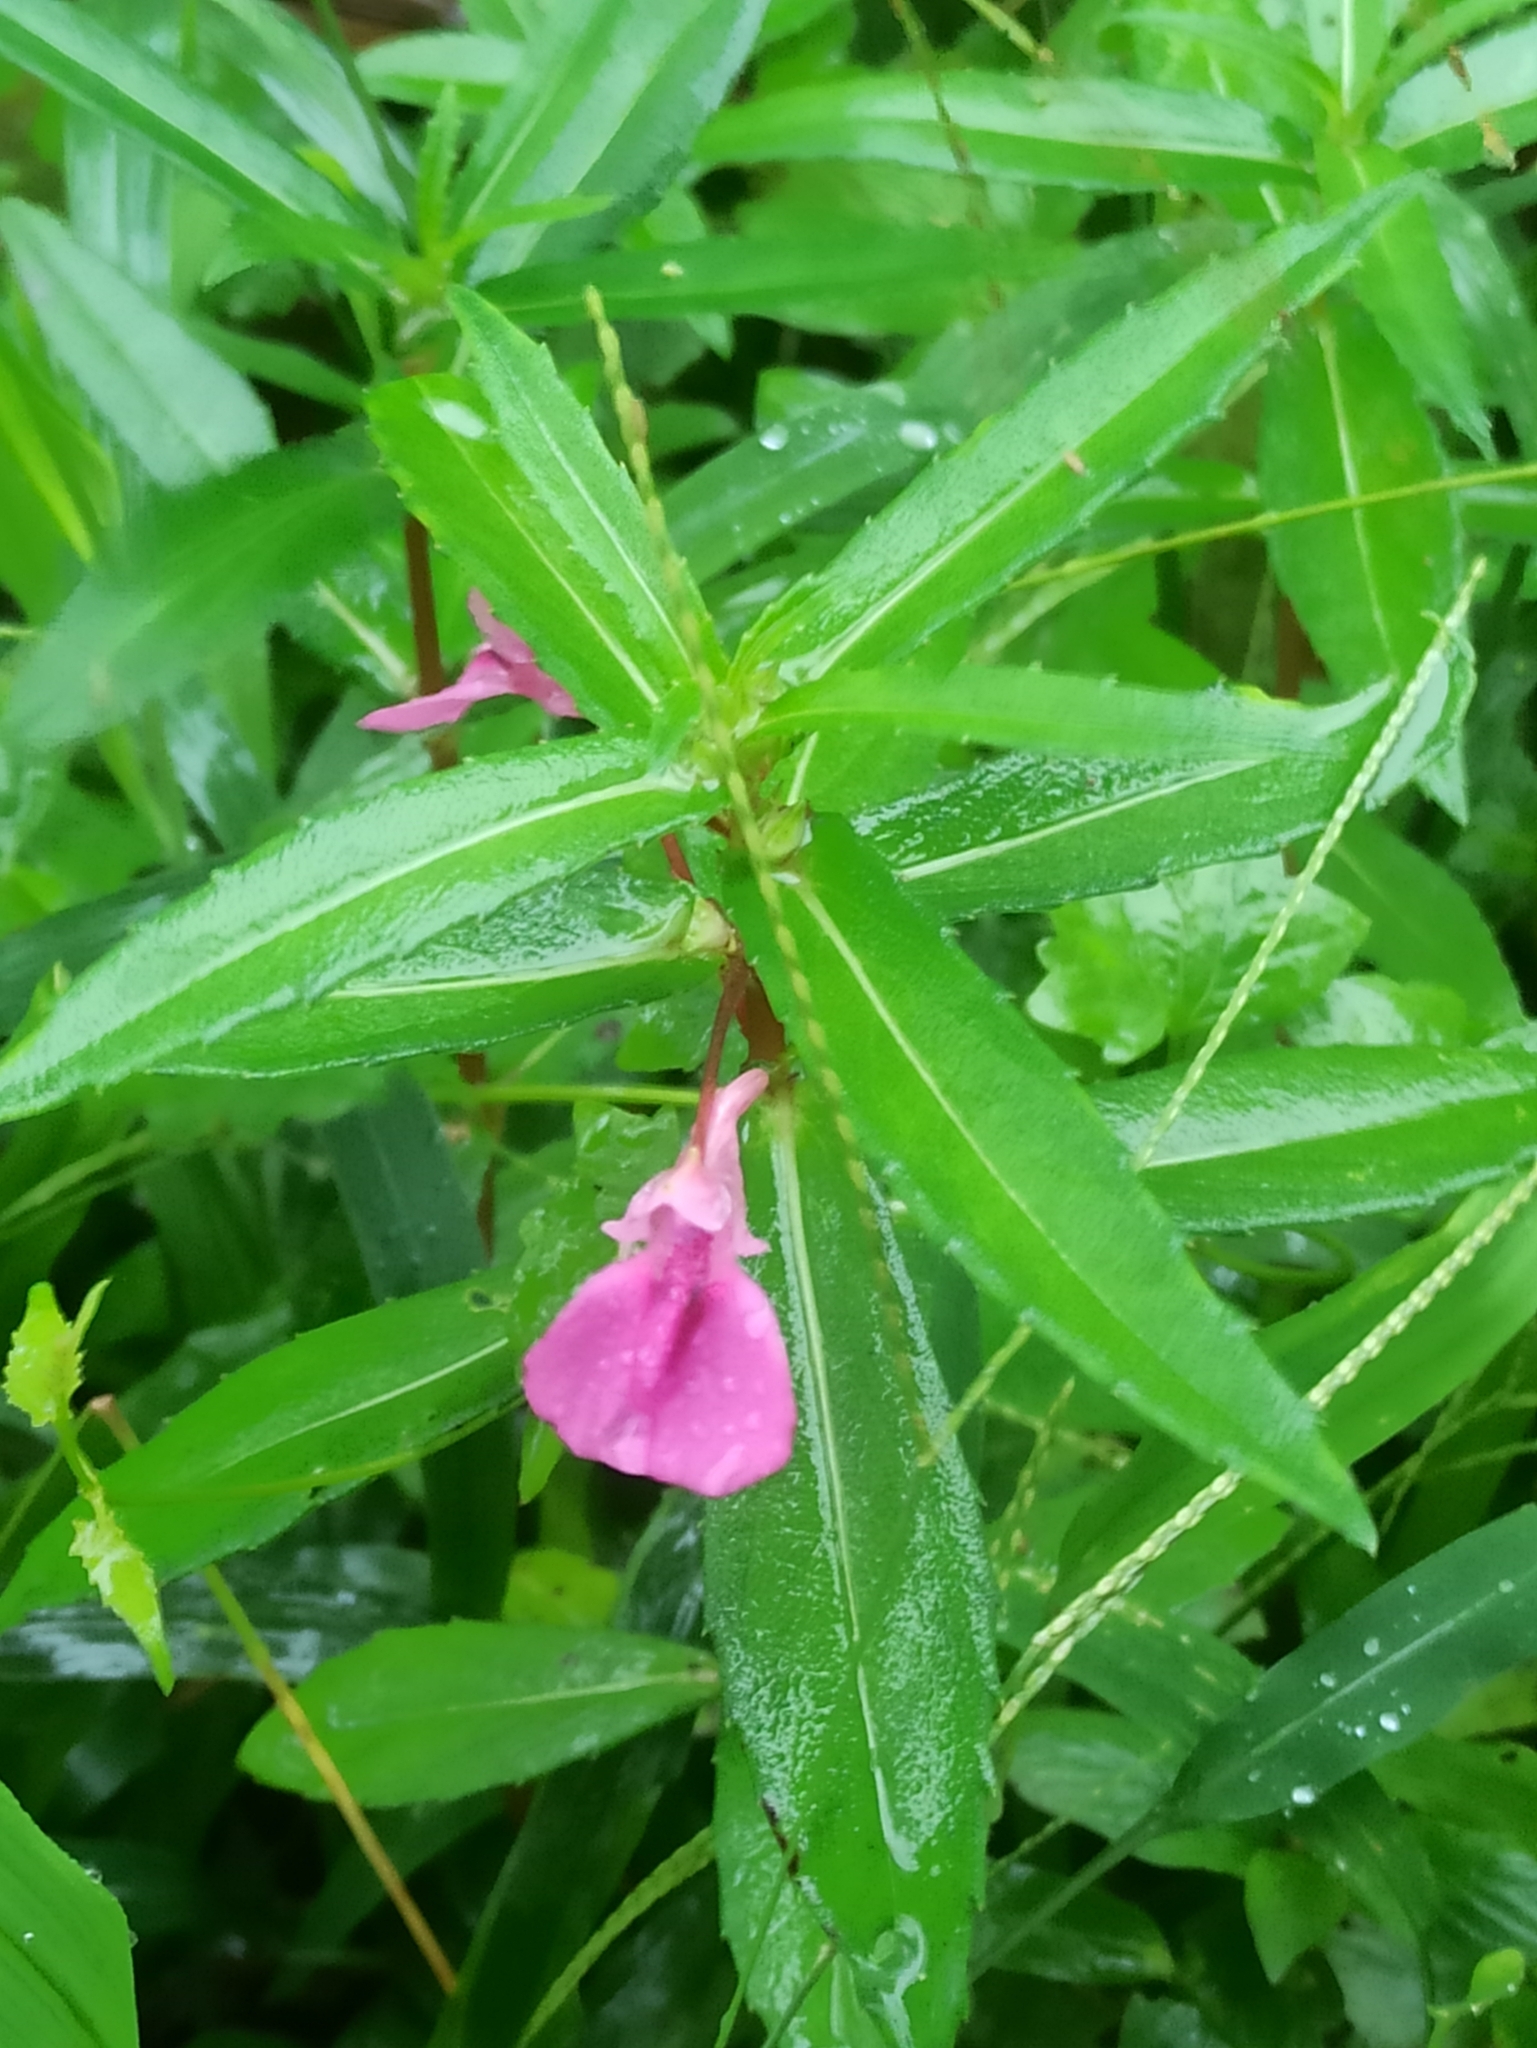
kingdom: Plantae
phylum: Tracheophyta
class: Magnoliopsida
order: Ericales
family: Balsaminaceae
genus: Impatiens
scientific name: Impatiens chinensis
